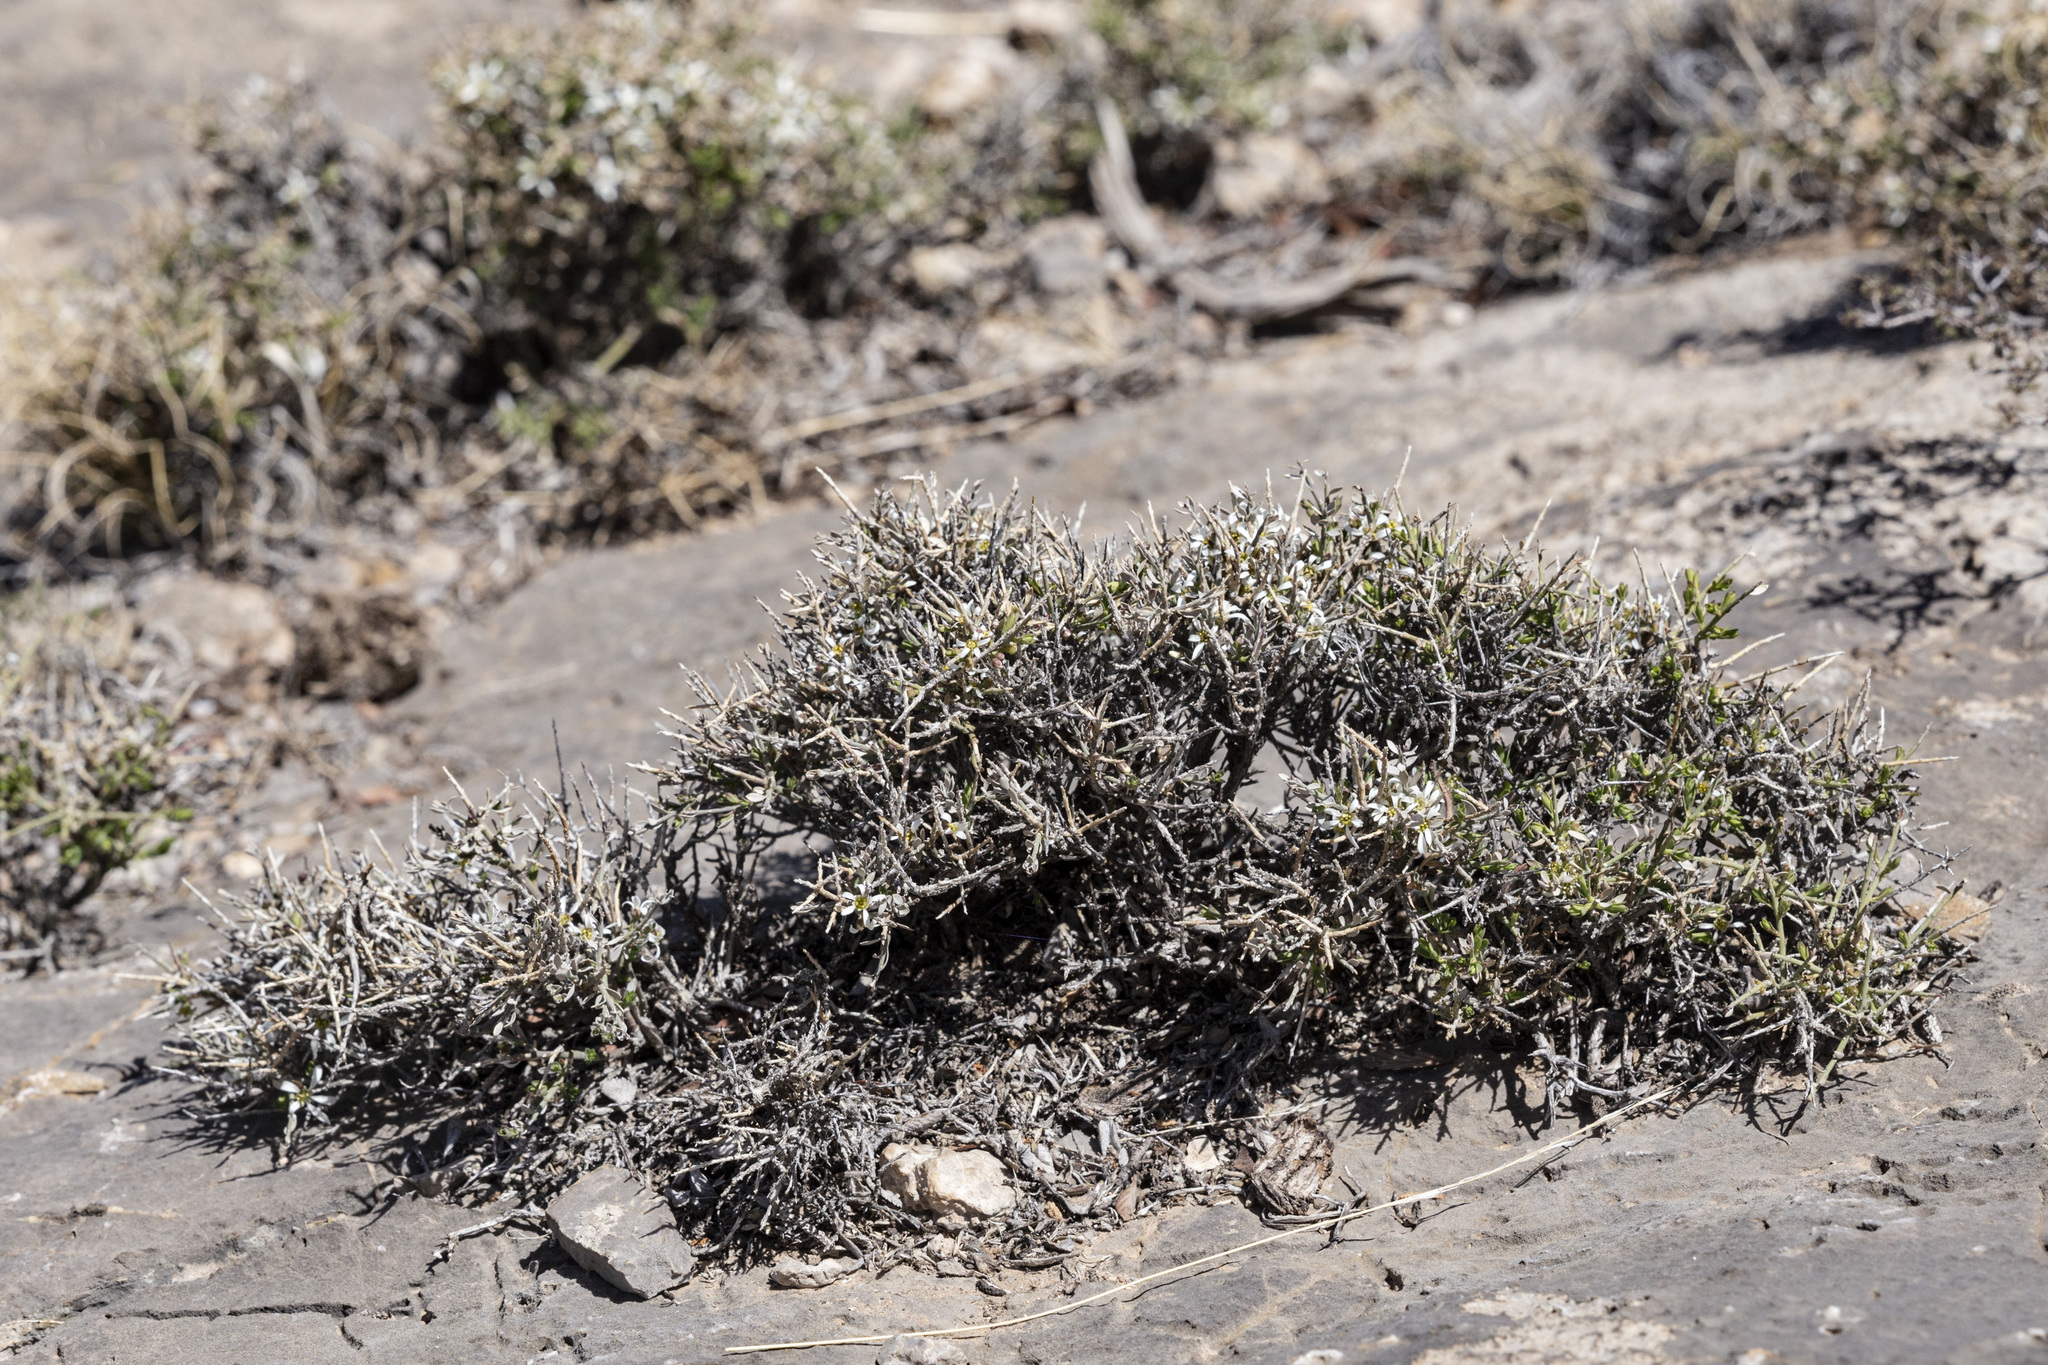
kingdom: Plantae
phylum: Tracheophyta
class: Magnoliopsida
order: Crossosomatales
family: Crossosomataceae
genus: Glossopetalon
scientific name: Glossopetalon spinescens
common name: Spring greasebush
